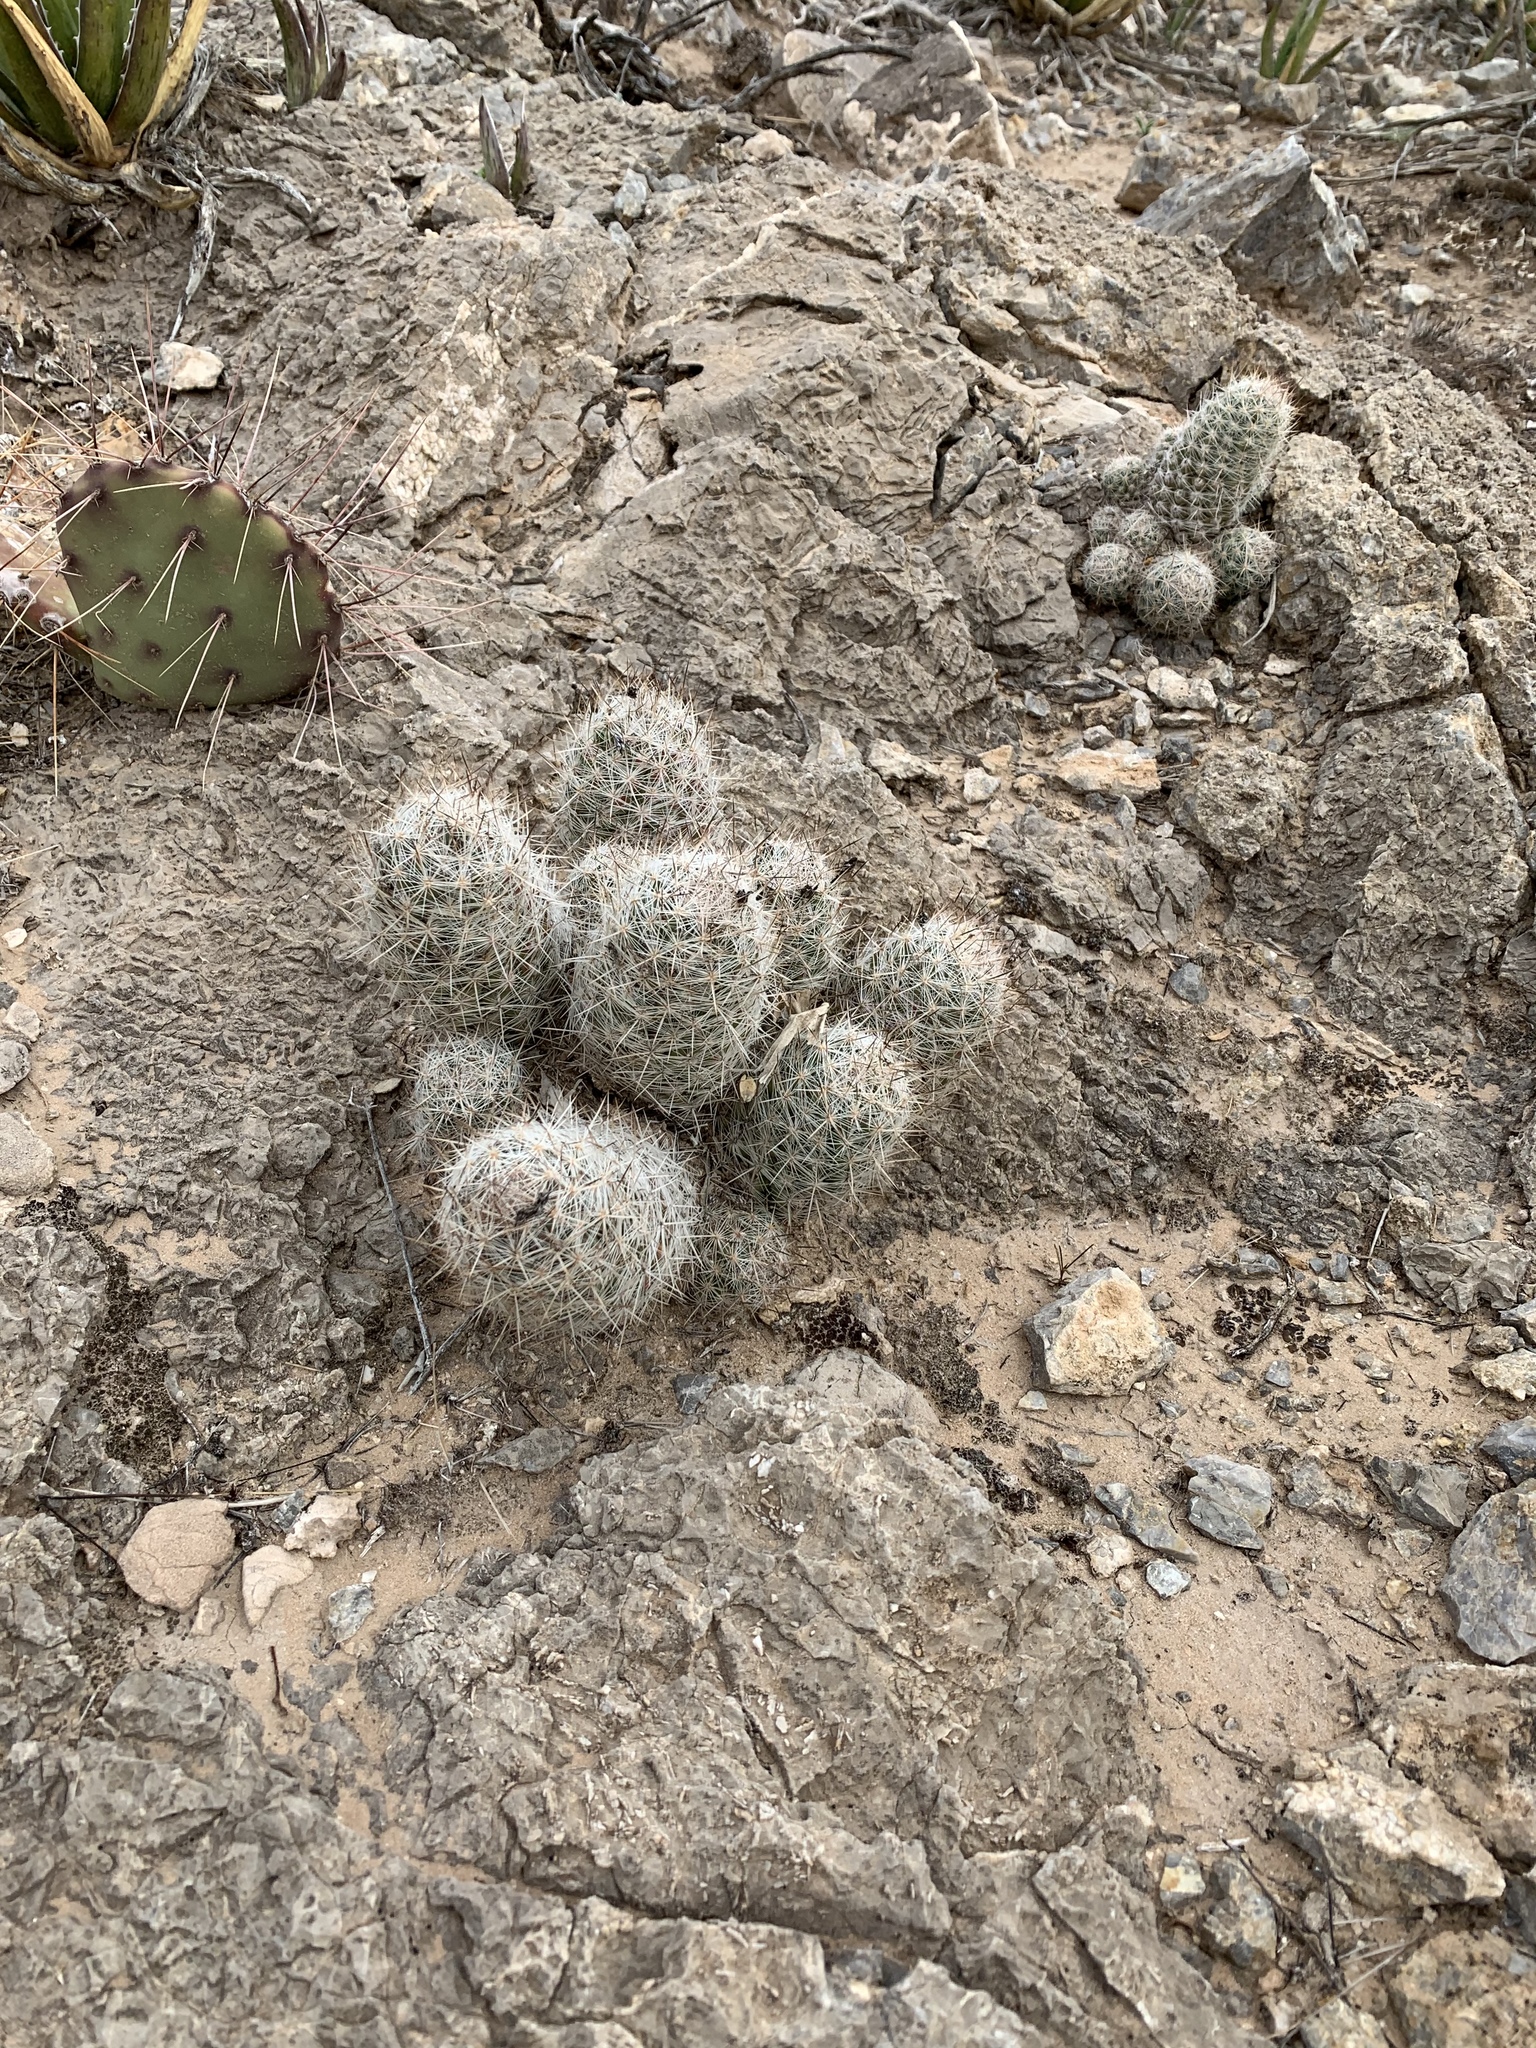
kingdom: Plantae
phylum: Tracheophyta
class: Magnoliopsida
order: Caryophyllales
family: Cactaceae
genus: Pelecyphora
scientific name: Pelecyphora tuberculosa
